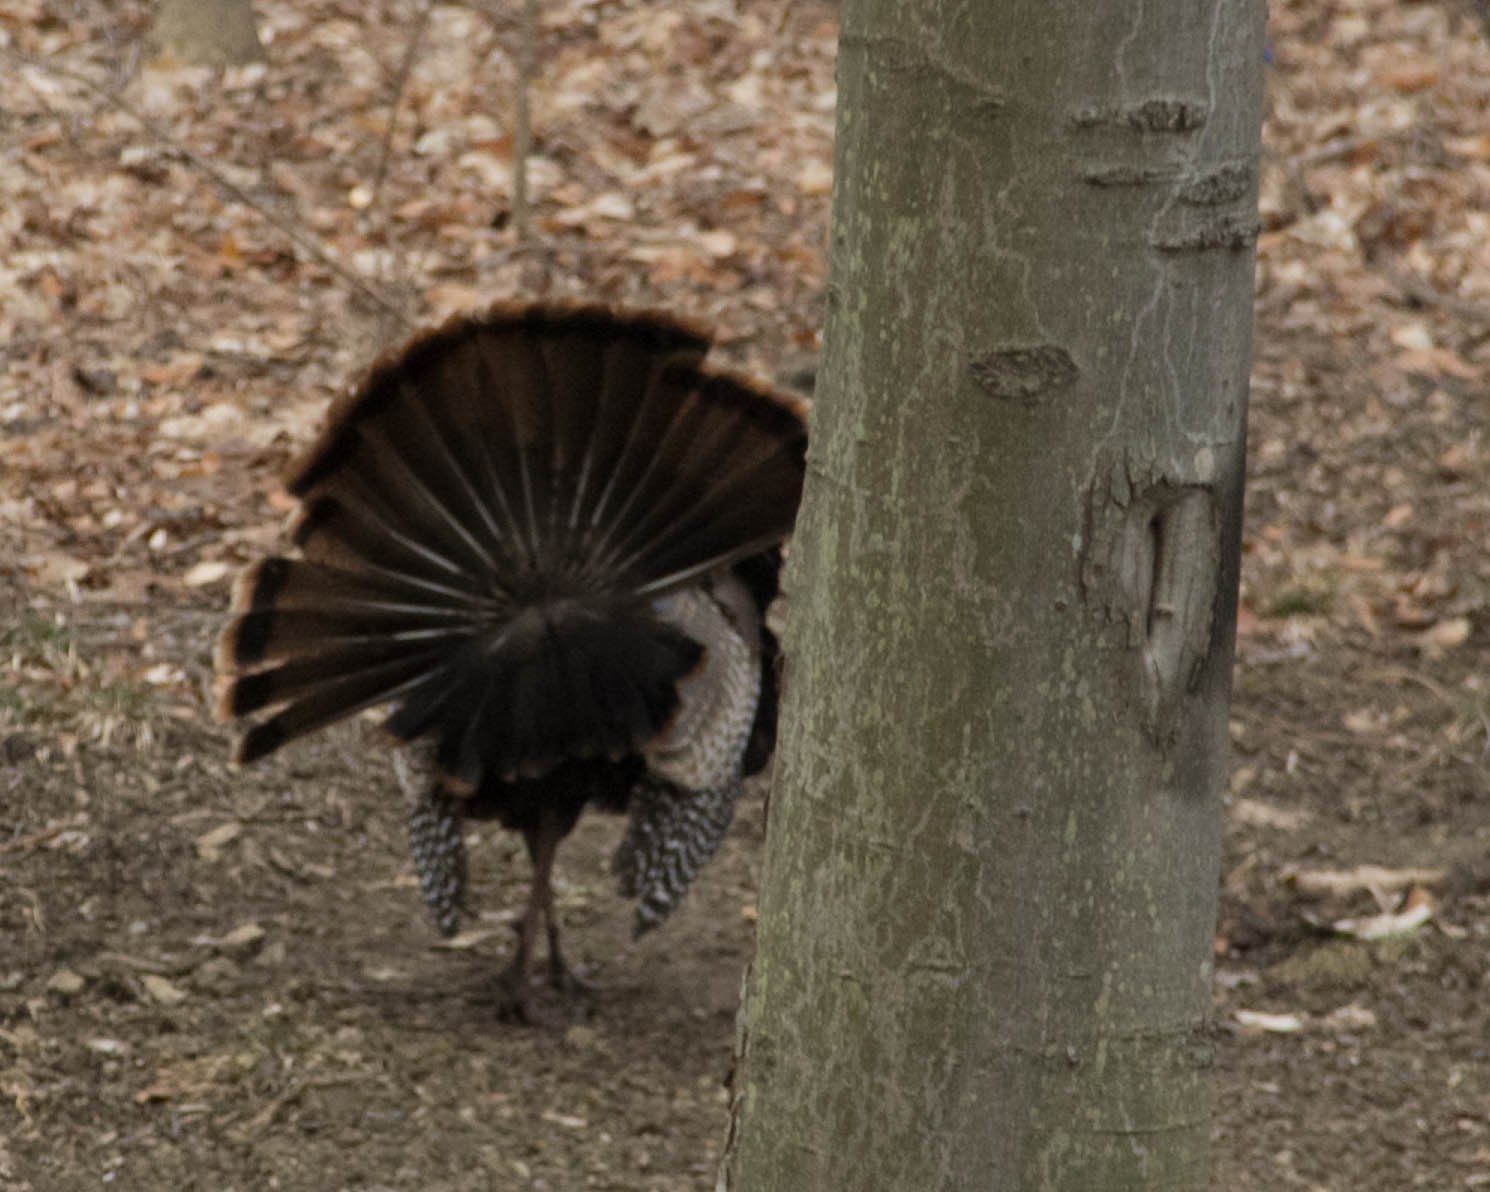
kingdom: Animalia
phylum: Chordata
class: Aves
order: Galliformes
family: Phasianidae
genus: Meleagris
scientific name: Meleagris gallopavo
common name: Wild turkey
